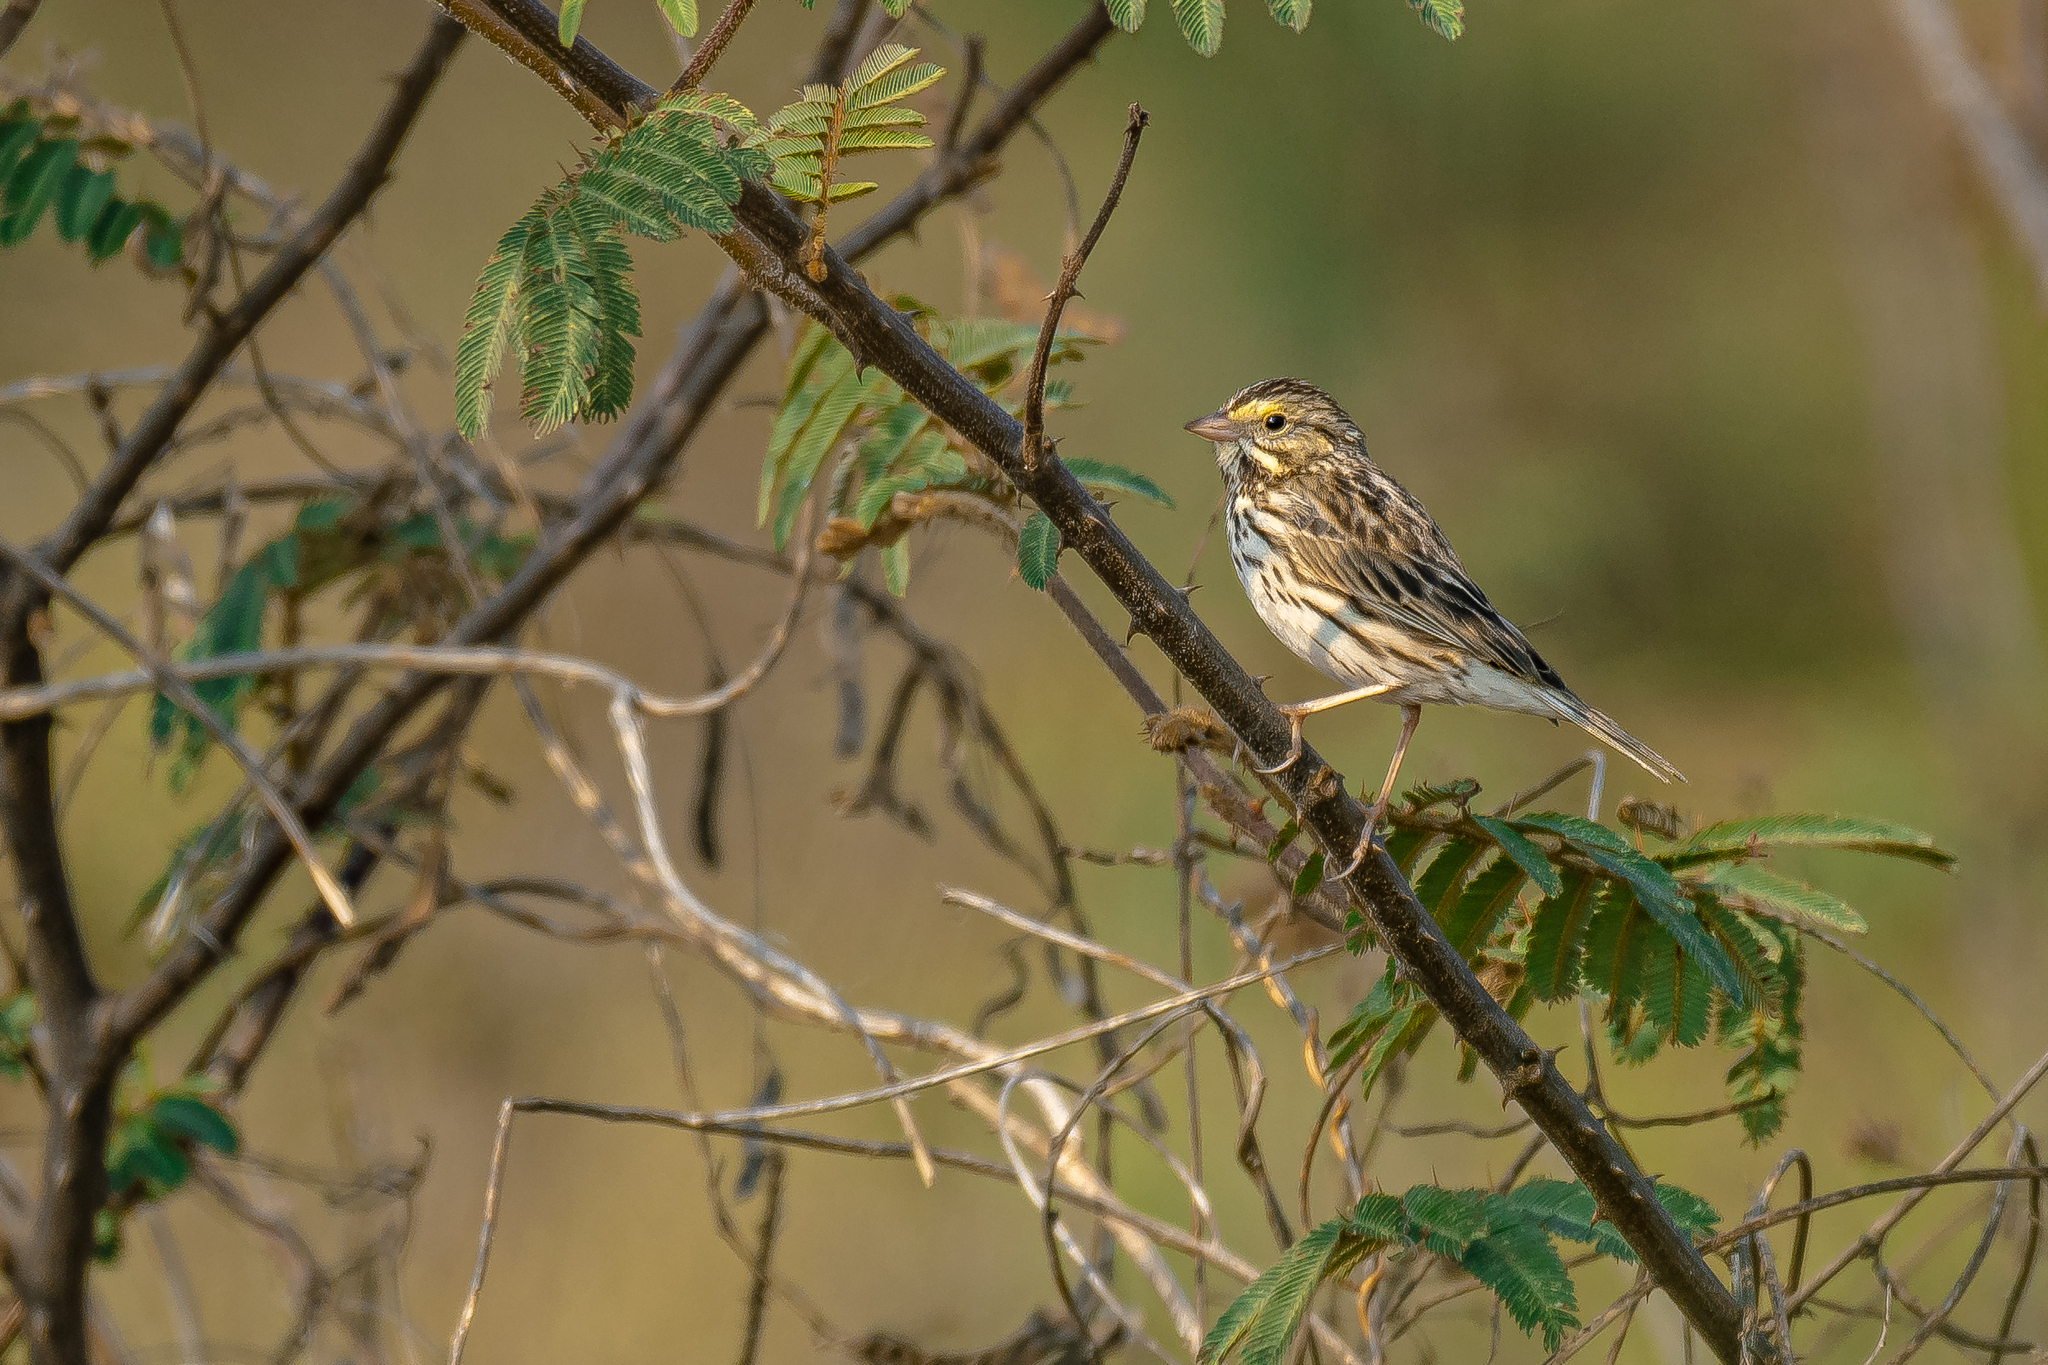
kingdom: Animalia
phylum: Chordata
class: Aves
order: Passeriformes
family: Passerellidae
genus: Passerculus
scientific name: Passerculus sandwichensis
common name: Savannah sparrow
